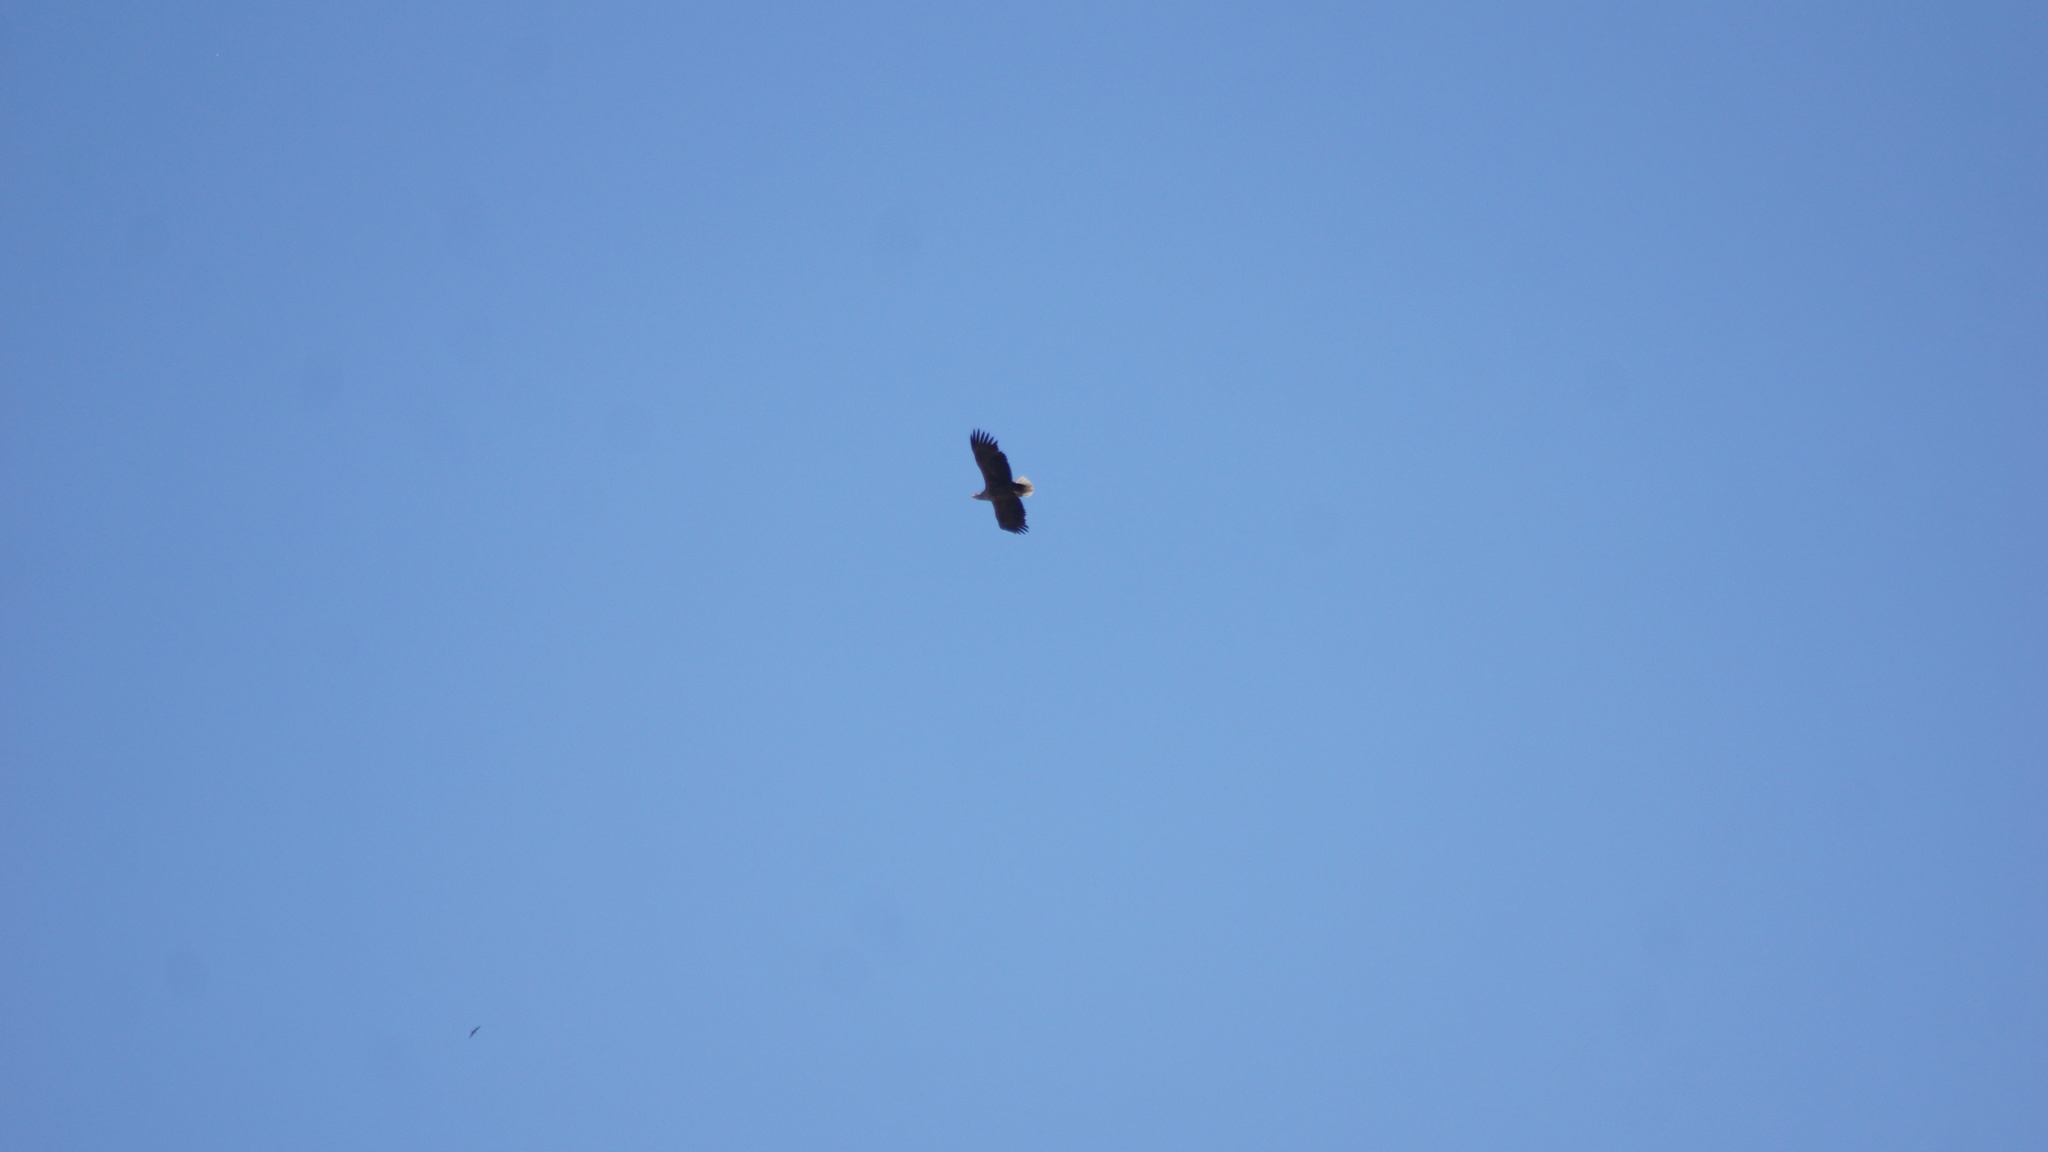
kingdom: Animalia
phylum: Chordata
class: Aves
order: Accipitriformes
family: Accipitridae
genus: Haliaeetus
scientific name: Haliaeetus albicilla
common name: White-tailed eagle
